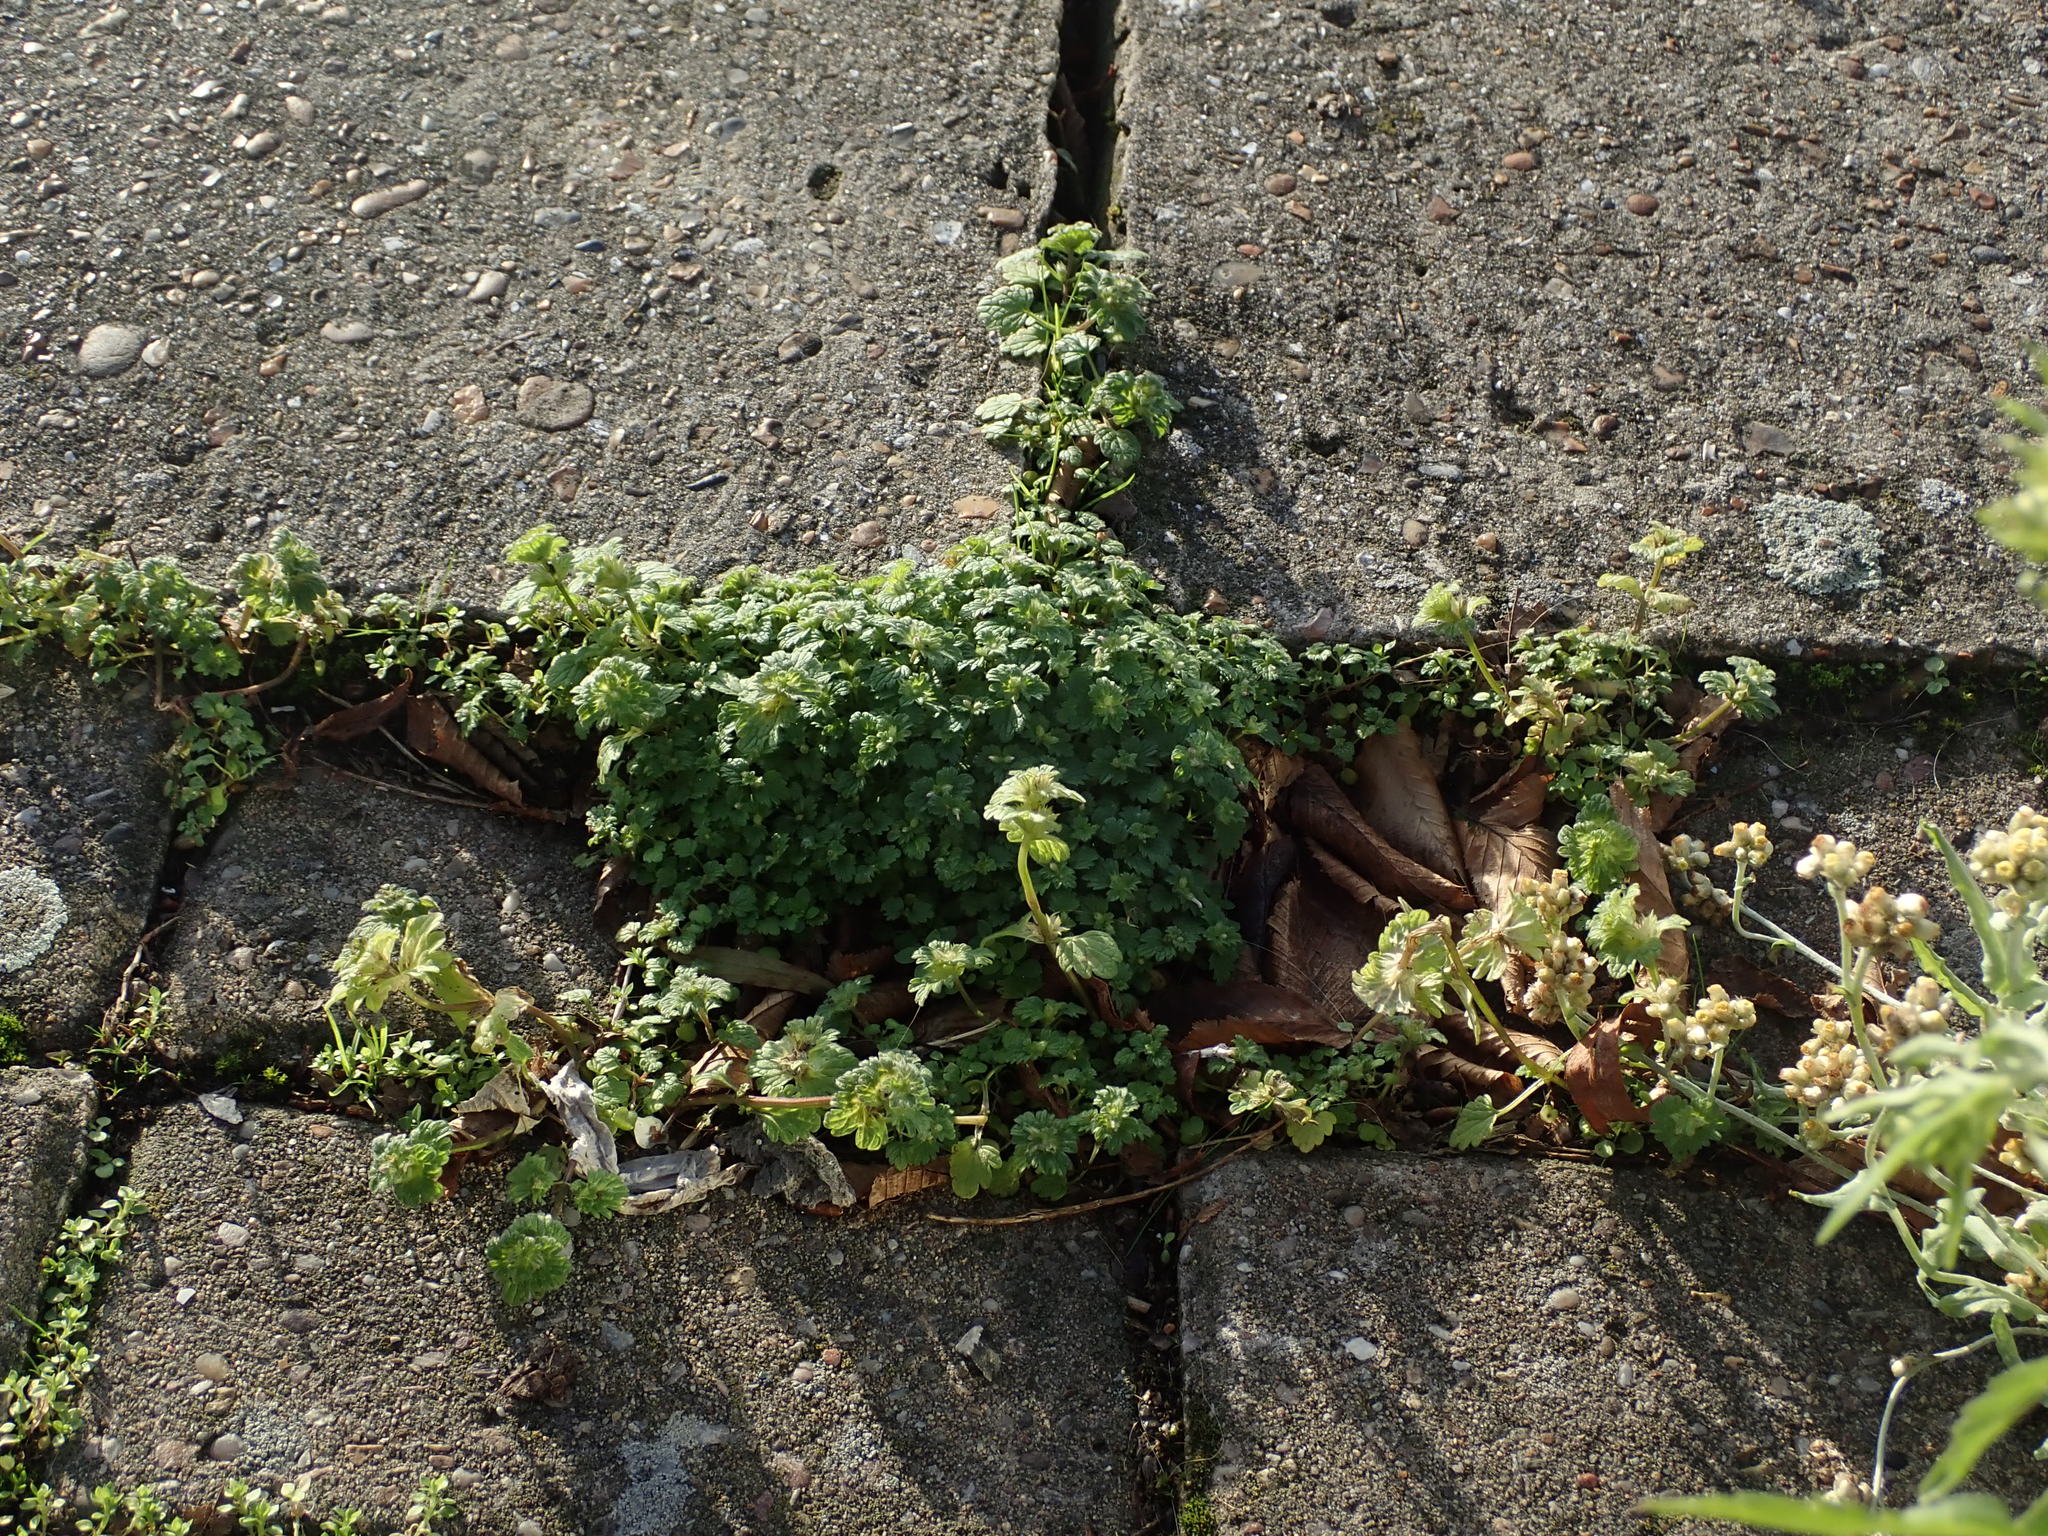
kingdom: Plantae
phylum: Tracheophyta
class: Magnoliopsida
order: Lamiales
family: Lamiaceae
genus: Lamium
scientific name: Lamium amplexicaule
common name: Henbit dead-nettle
